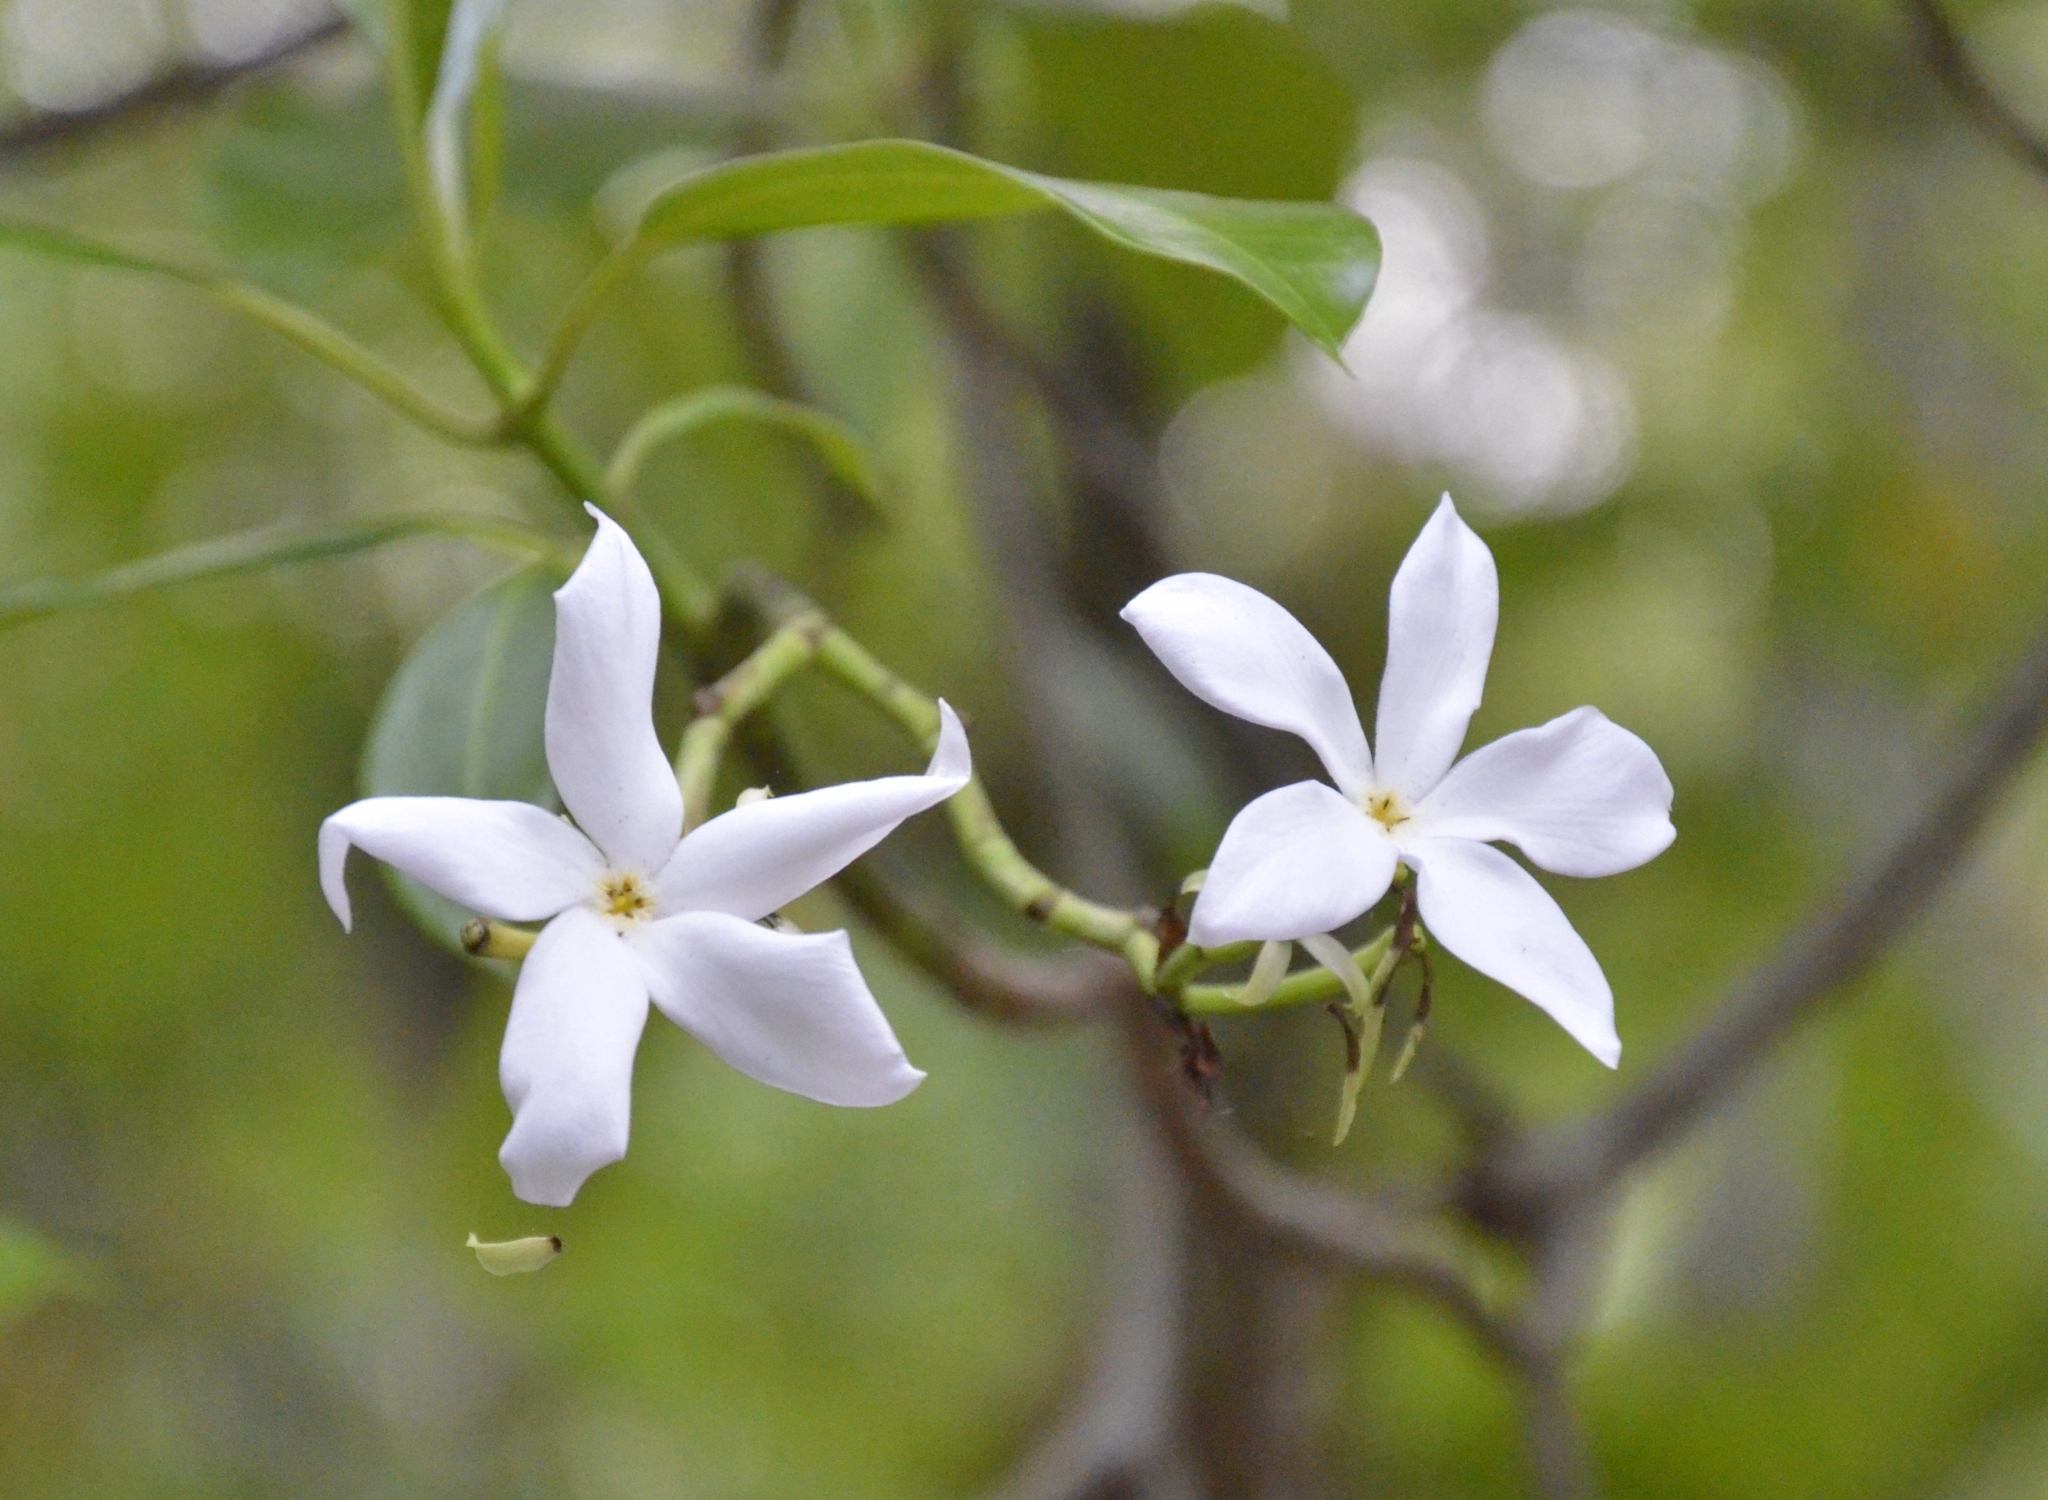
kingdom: Plantae
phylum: Tracheophyta
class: Magnoliopsida
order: Gentianales
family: Apocynaceae
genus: Cerbera
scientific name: Cerbera odollam
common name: Pong-pong
